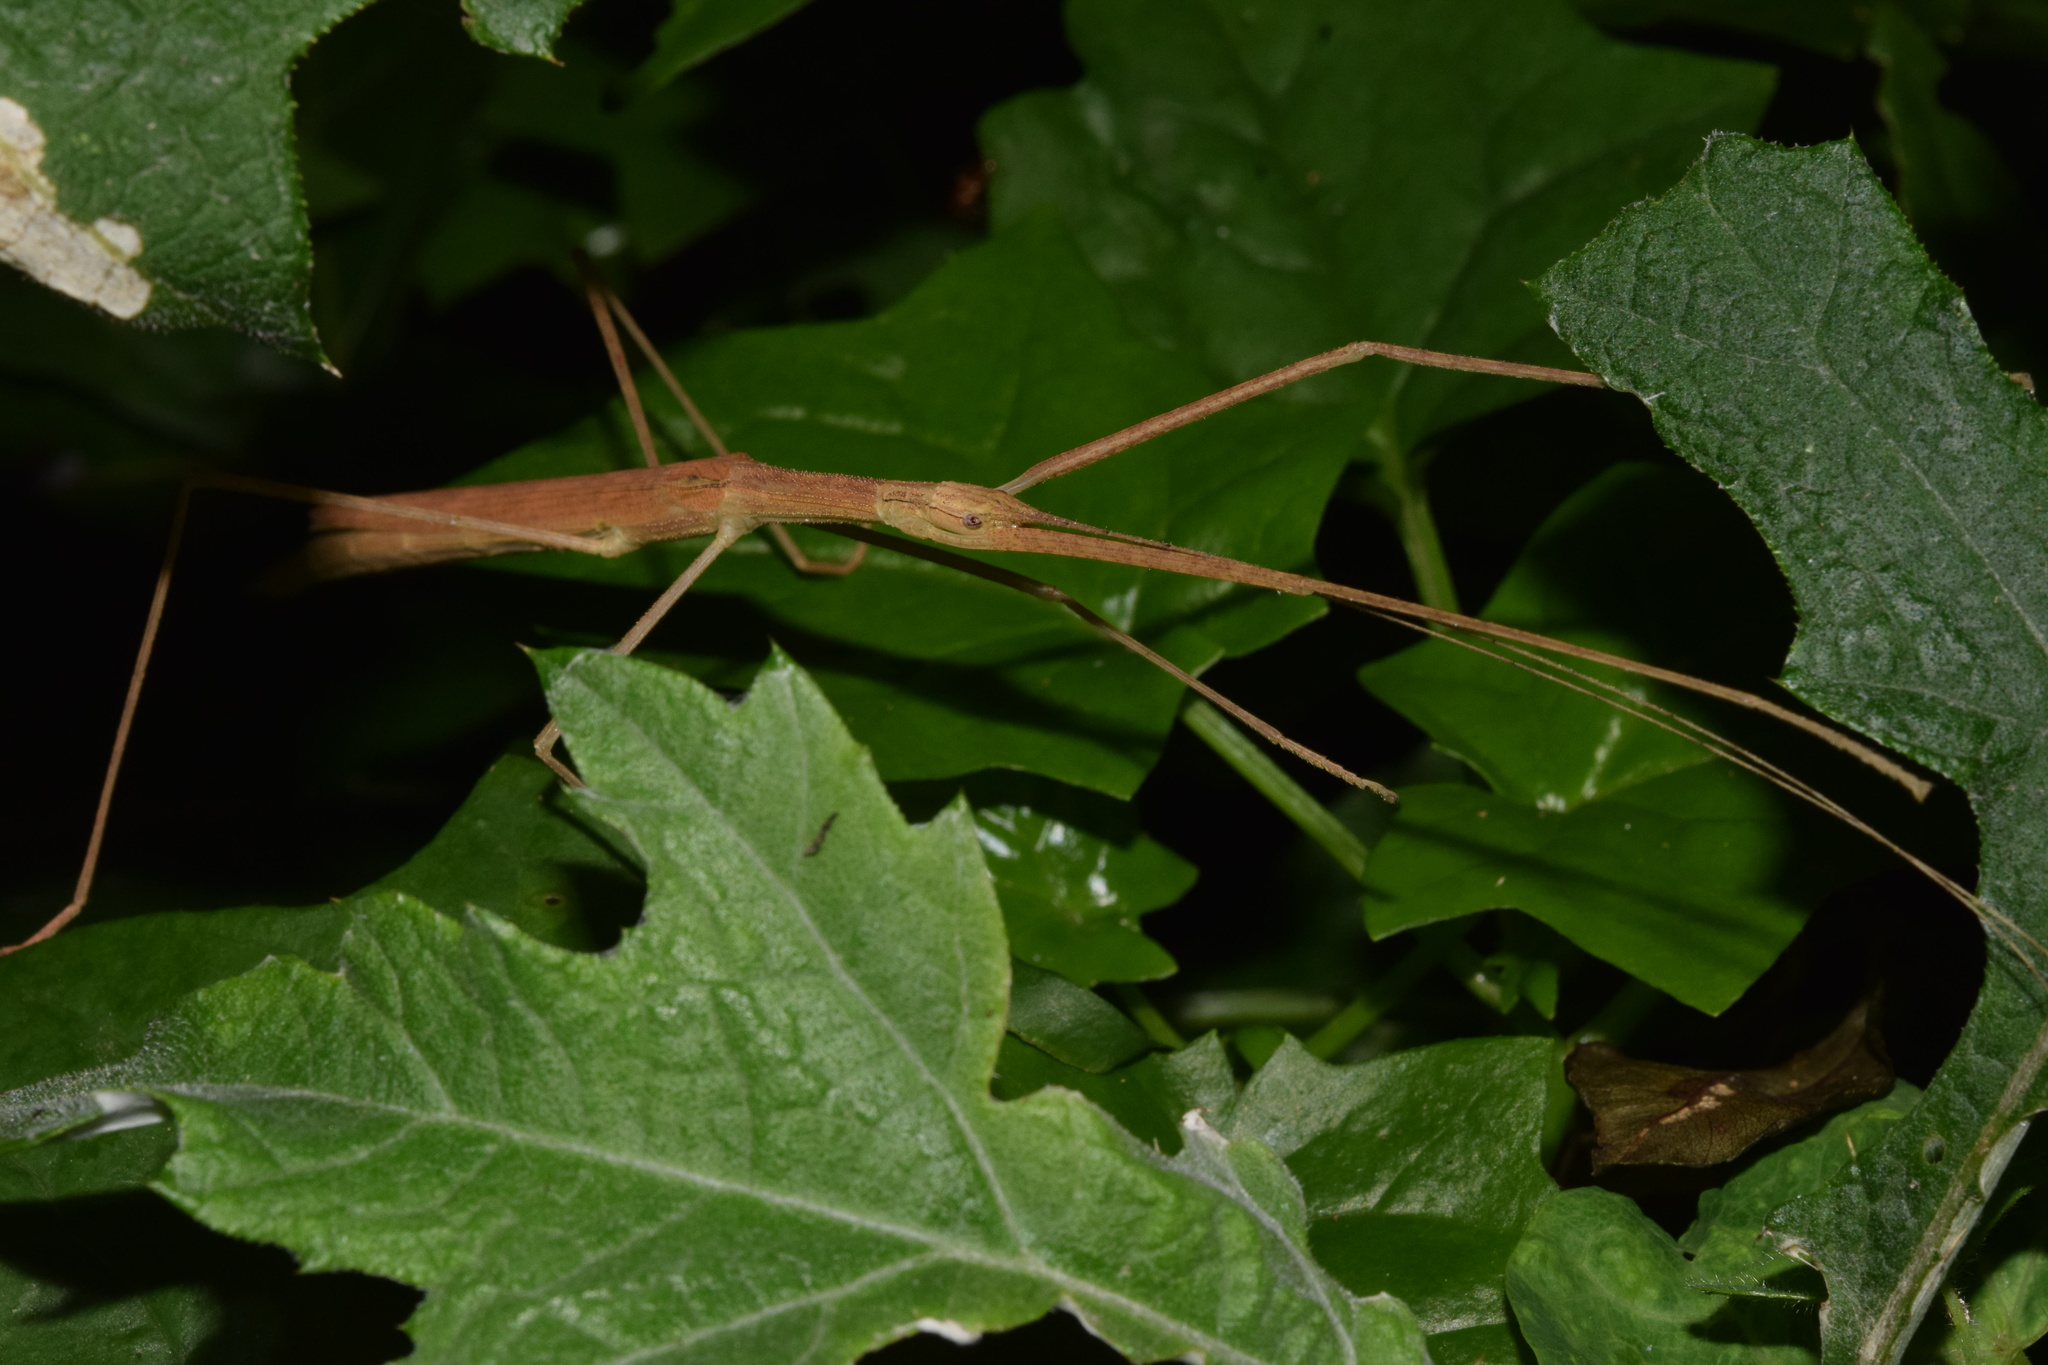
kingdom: Animalia
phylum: Arthropoda
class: Insecta
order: Phasmida
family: Lonchodidae
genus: Sipyloidea
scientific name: Sipyloidea sipylus
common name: Madagascan stick insect
